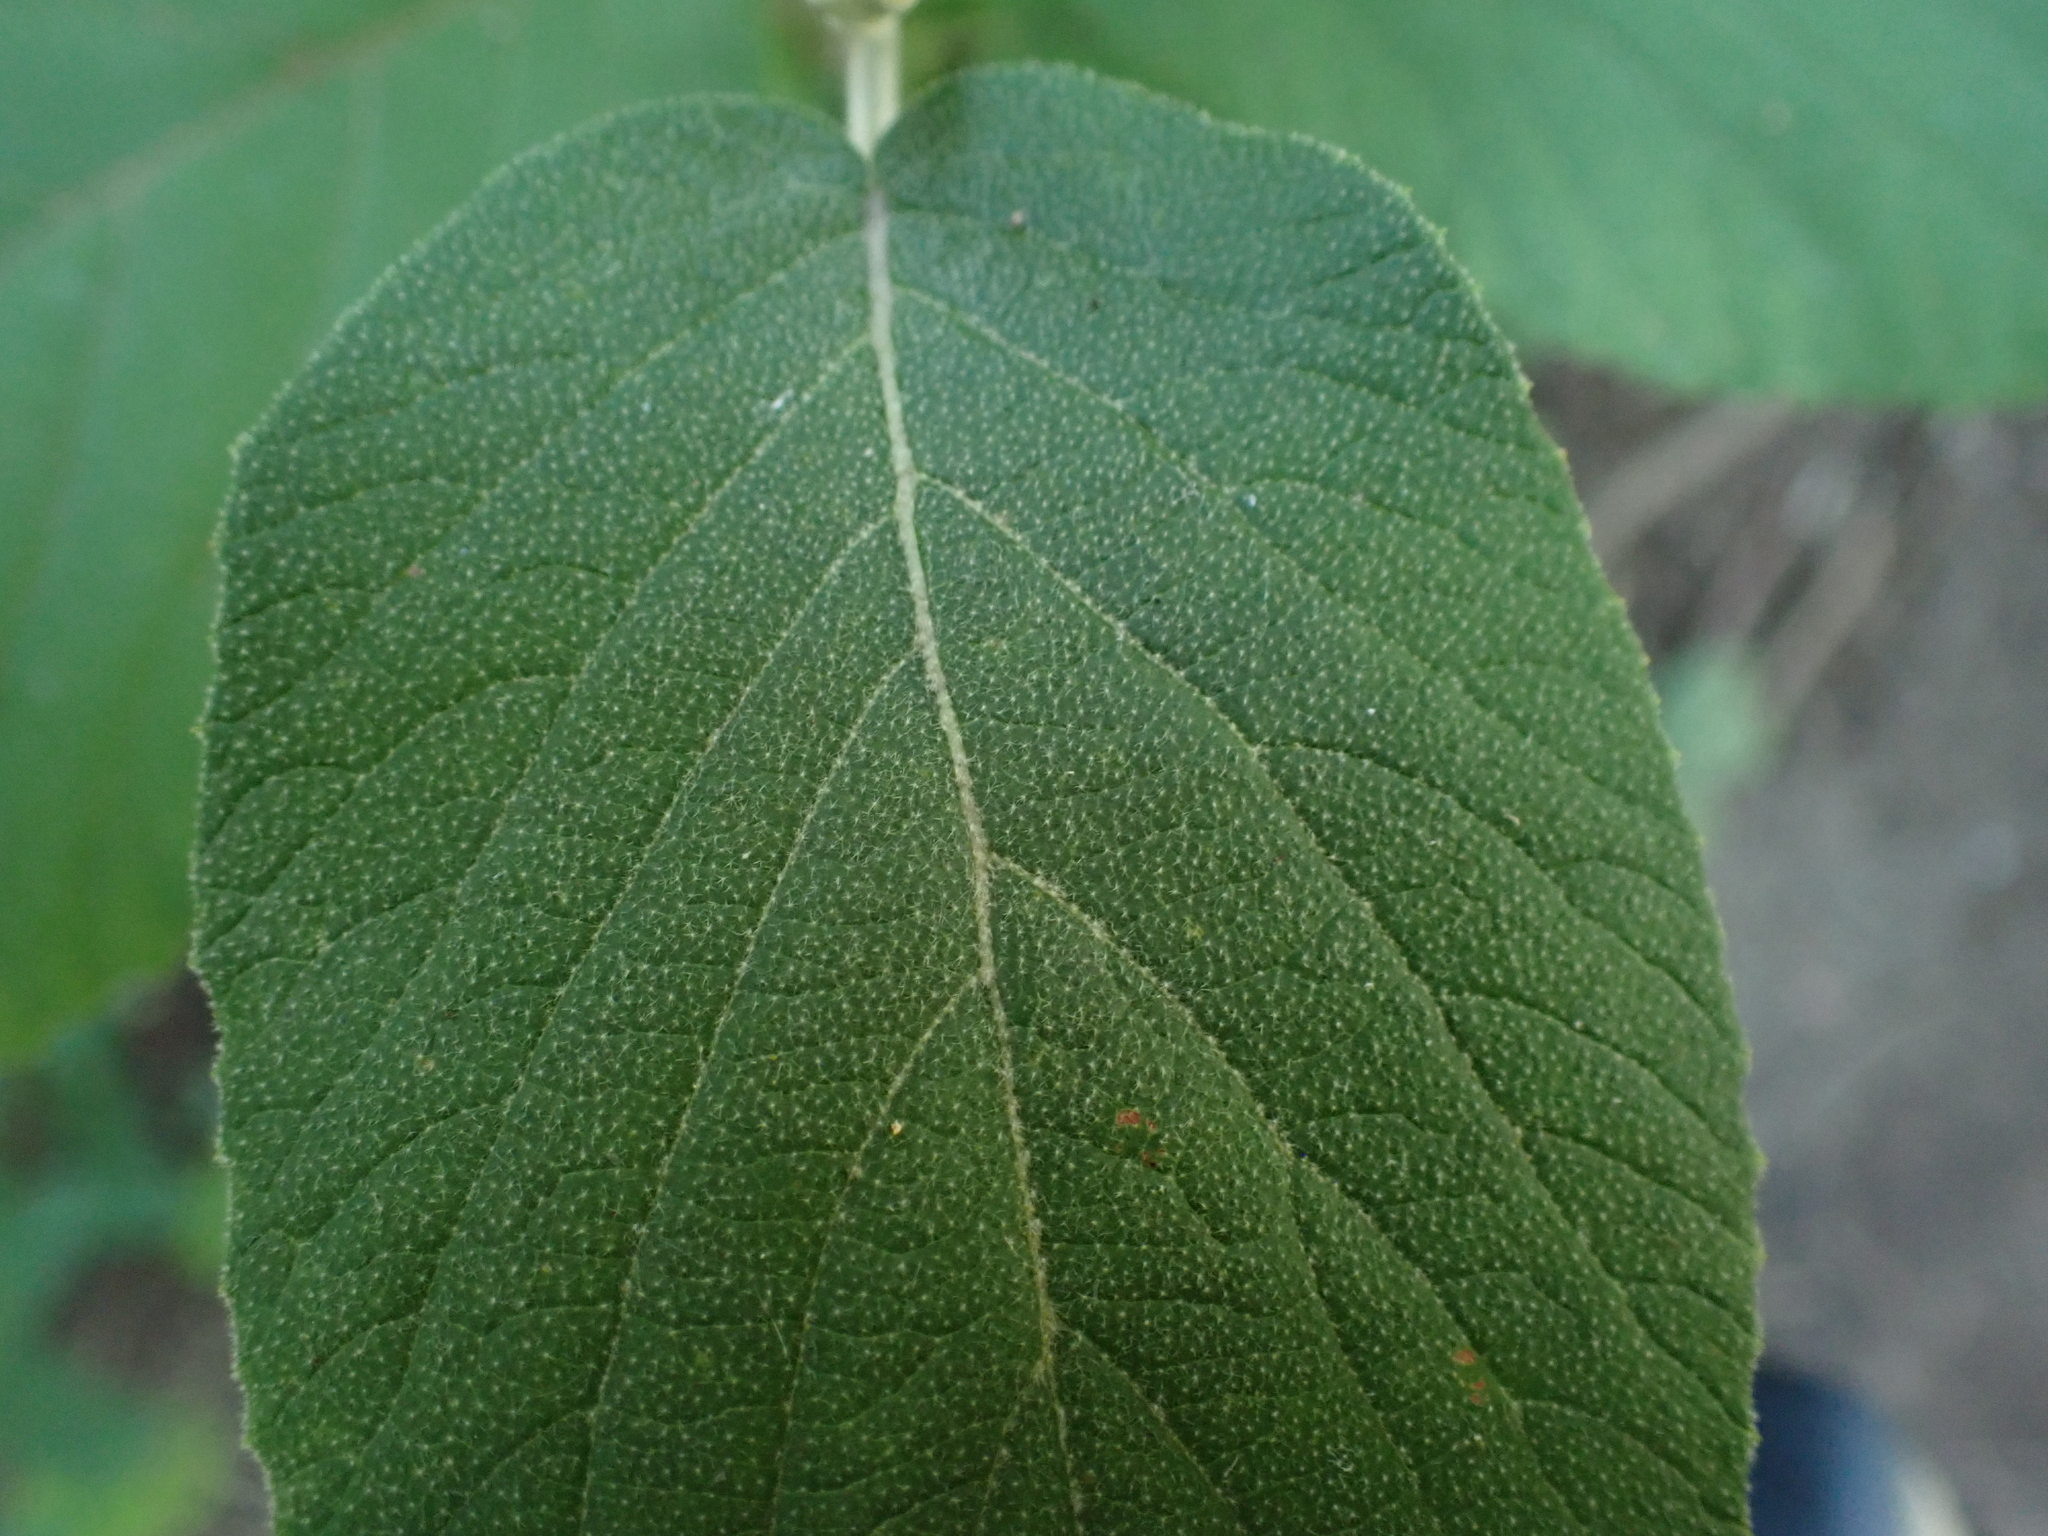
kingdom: Plantae
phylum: Tracheophyta
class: Magnoliopsida
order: Dipsacales
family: Viburnaceae
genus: Viburnum
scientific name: Viburnum lantana
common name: Wayfaring tree
